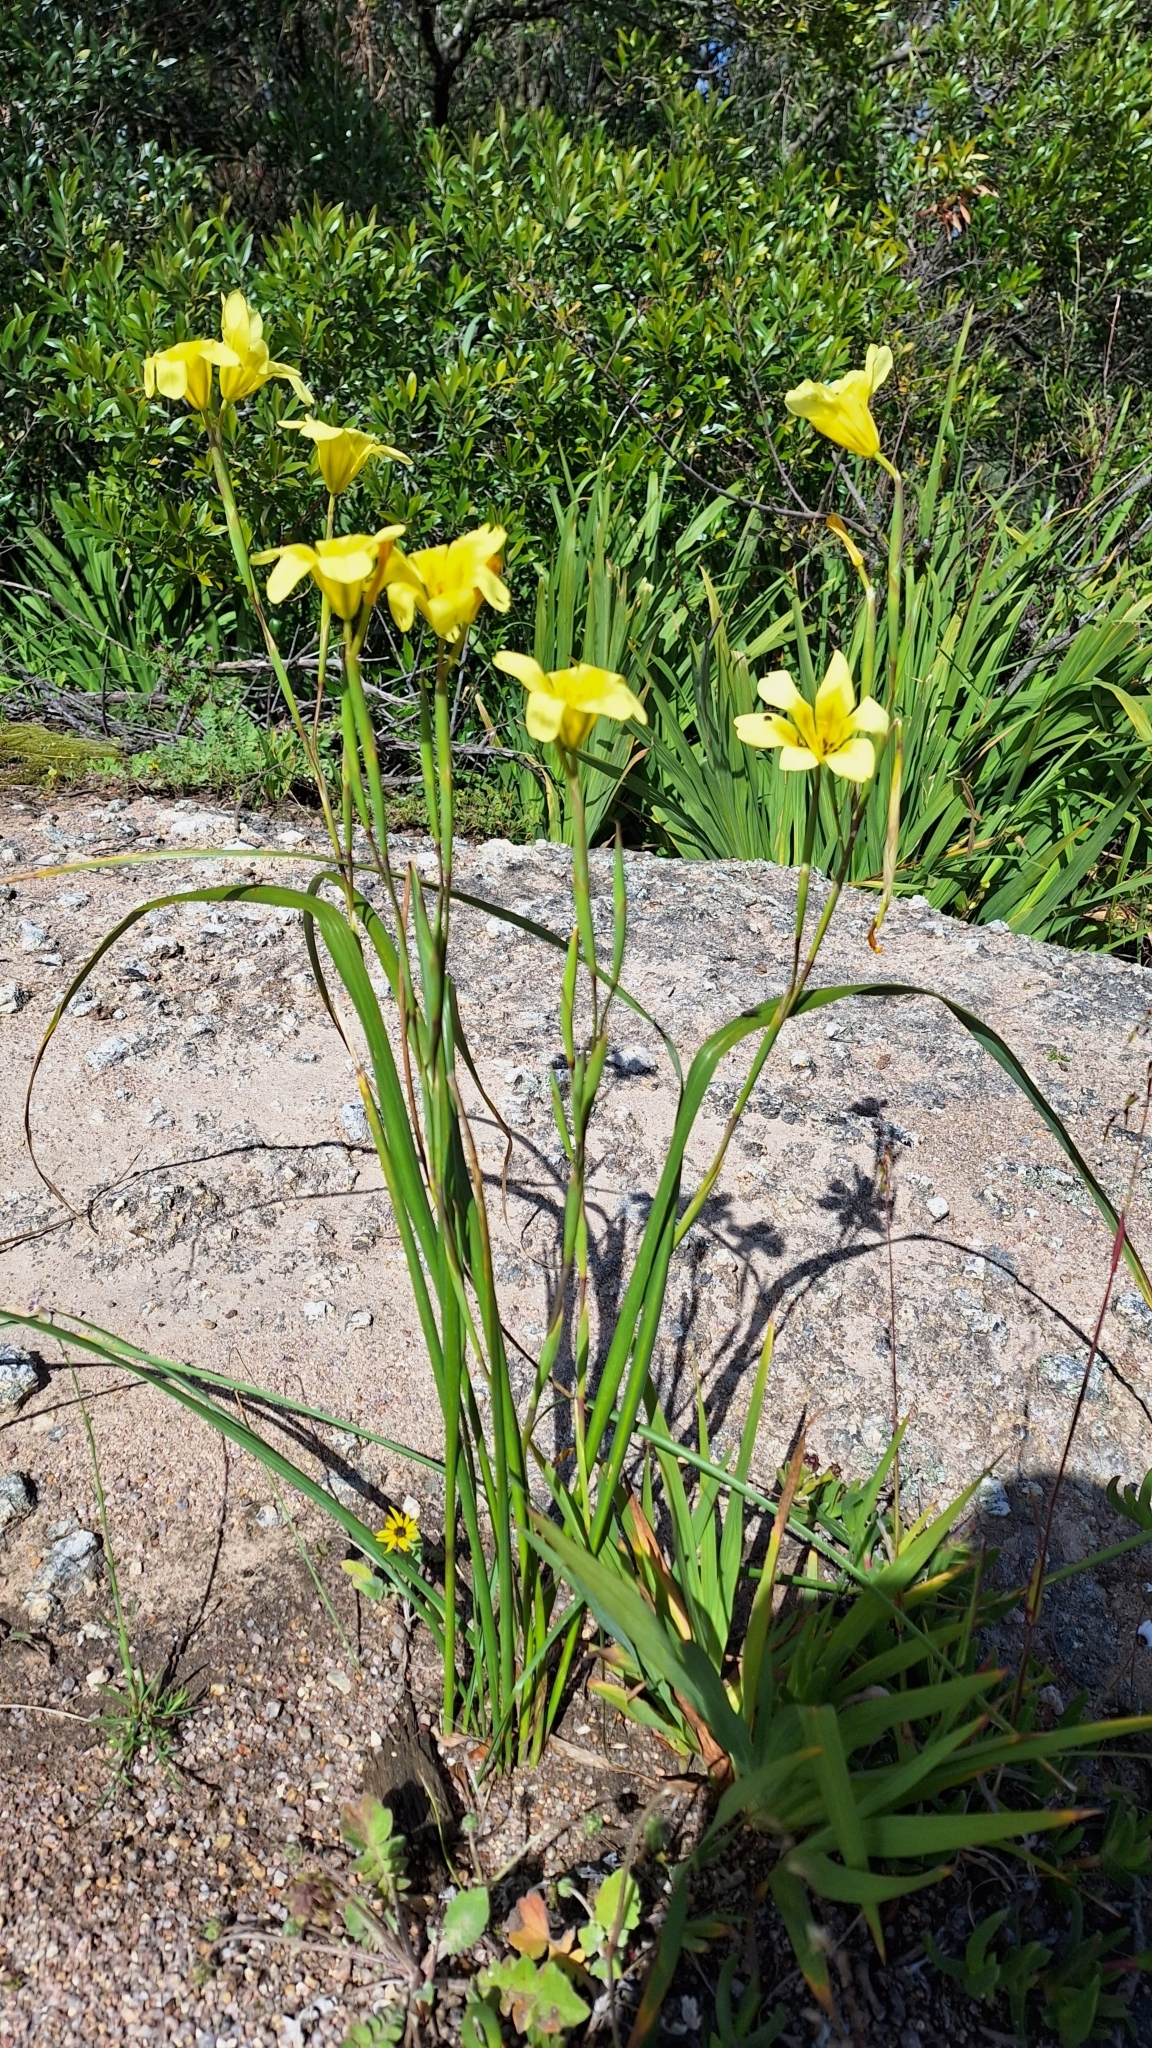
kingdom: Plantae
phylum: Tracheophyta
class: Liliopsida
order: Asparagales
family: Iridaceae
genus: Moraea
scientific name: Moraea ochroleuca
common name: Red tulp
